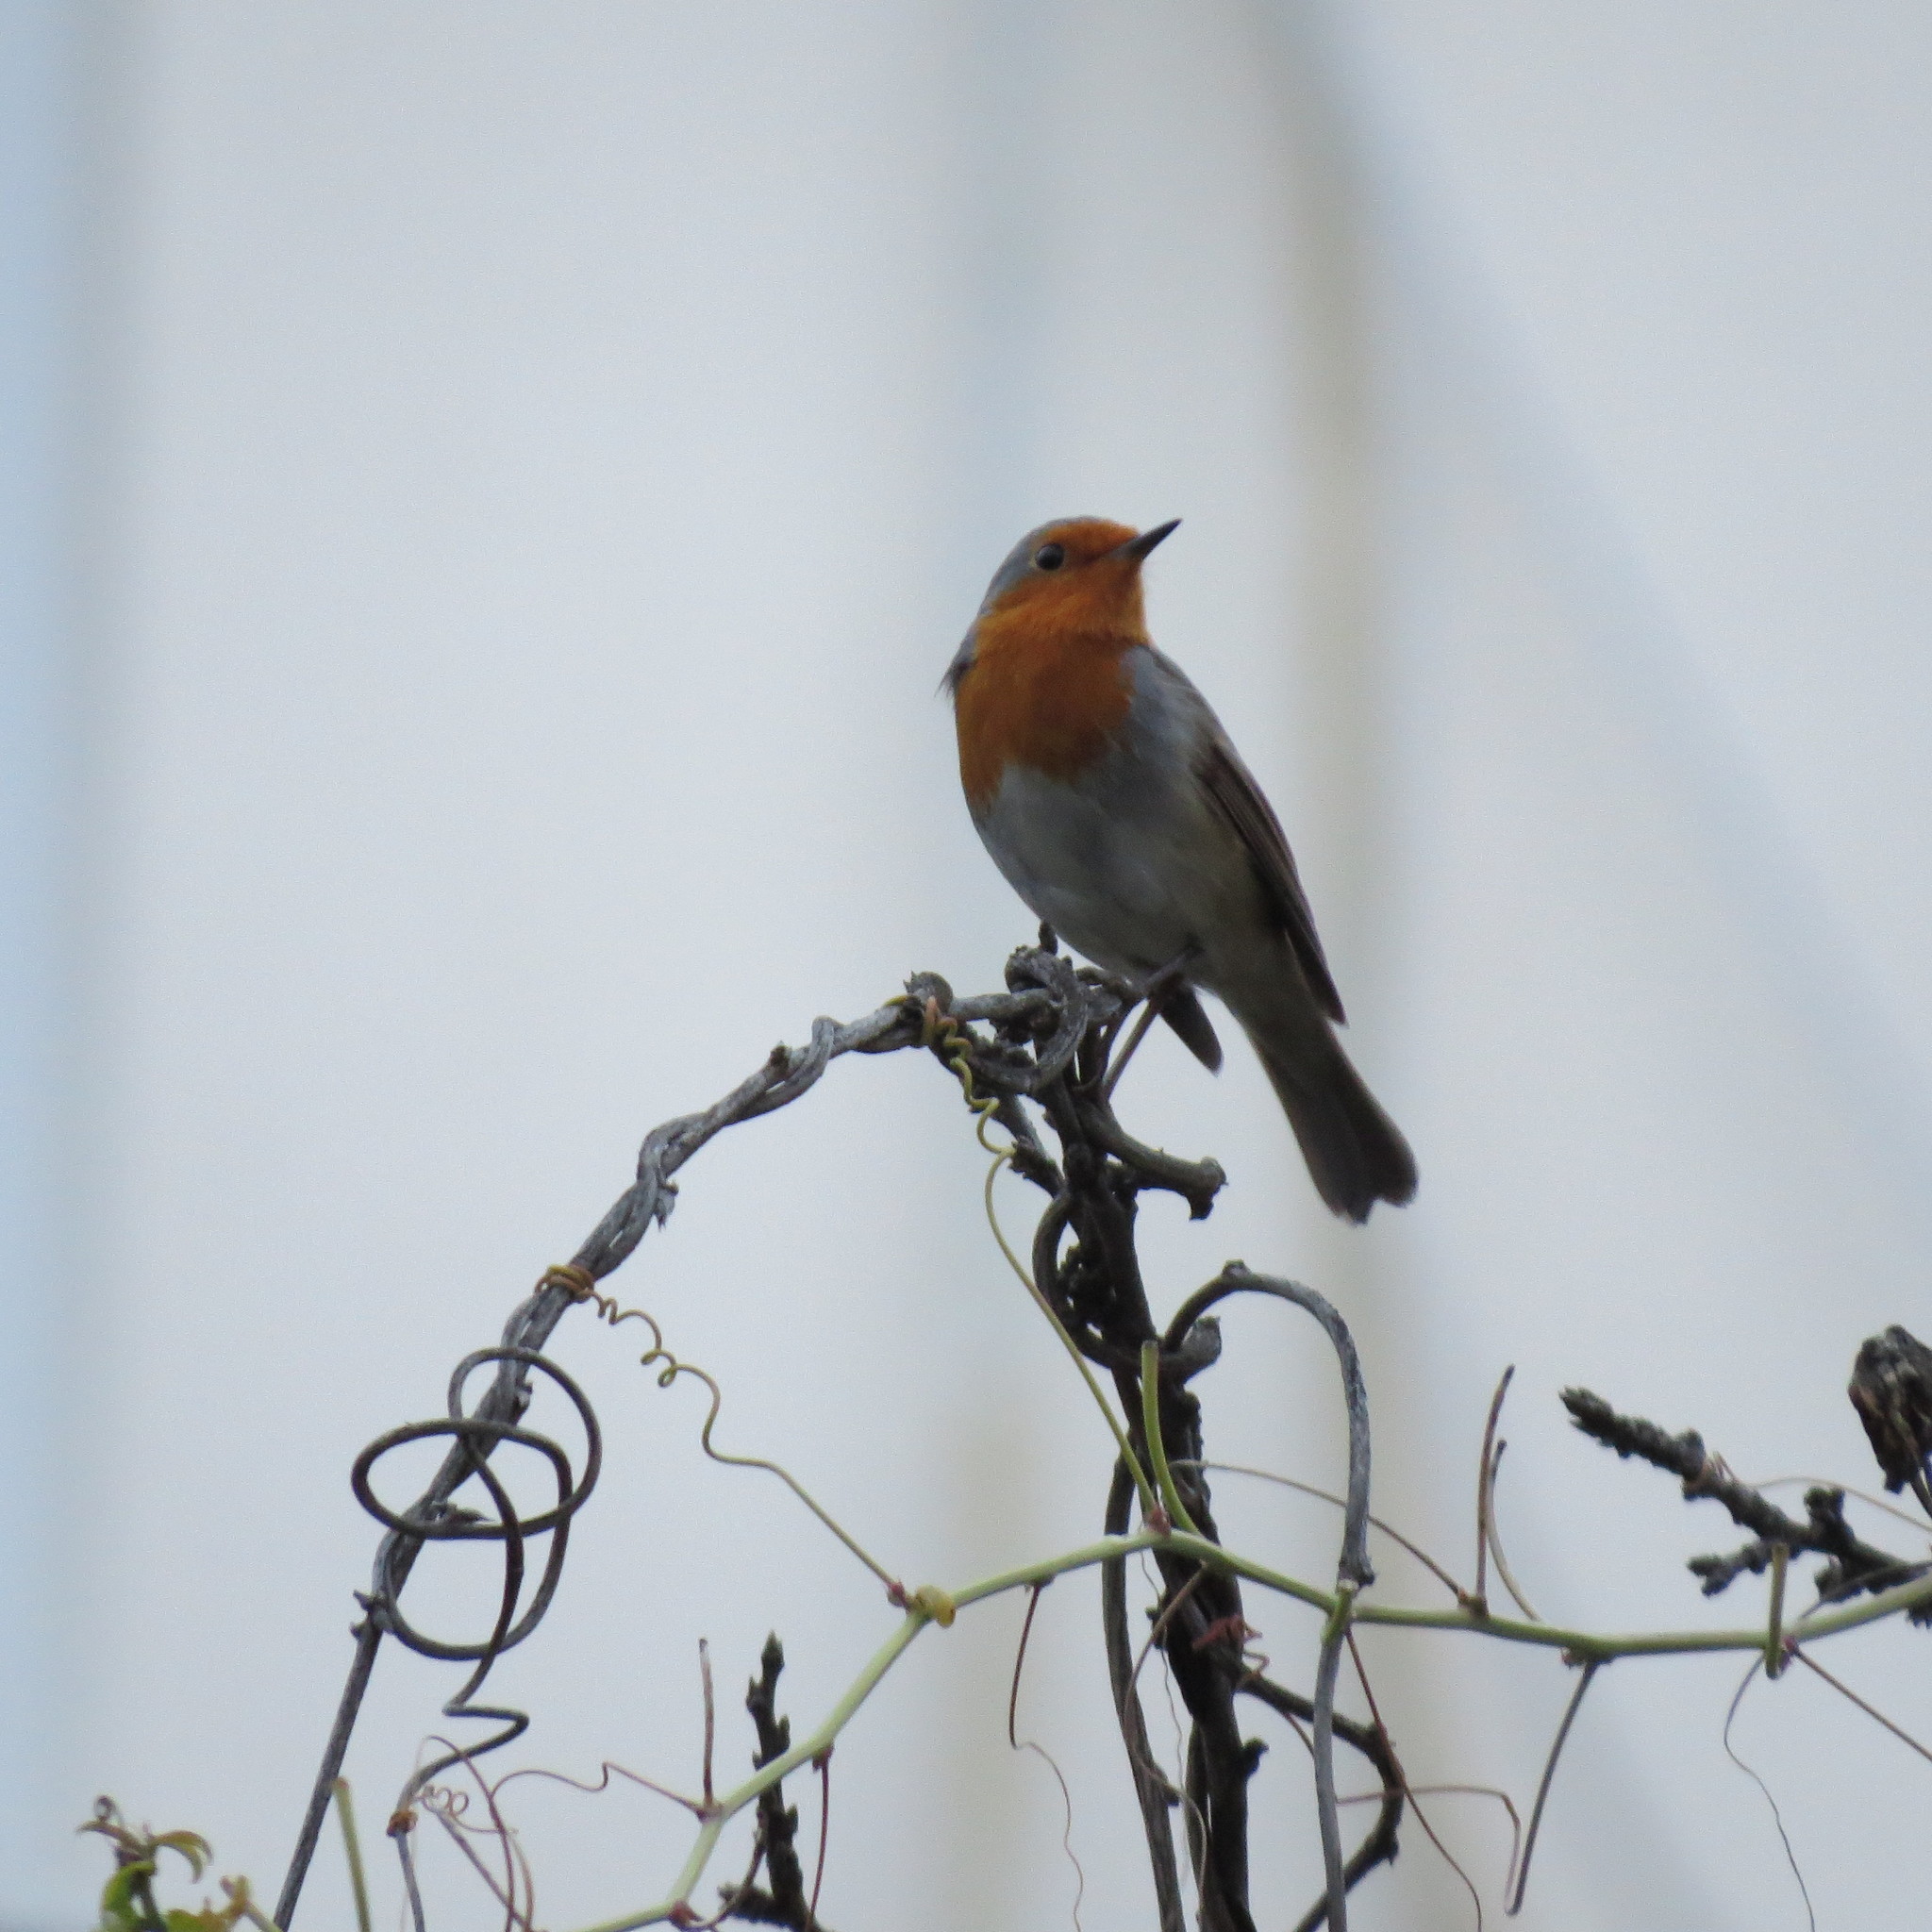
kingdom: Animalia
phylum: Chordata
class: Aves
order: Passeriformes
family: Muscicapidae
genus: Erithacus
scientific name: Erithacus rubecula
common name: European robin
